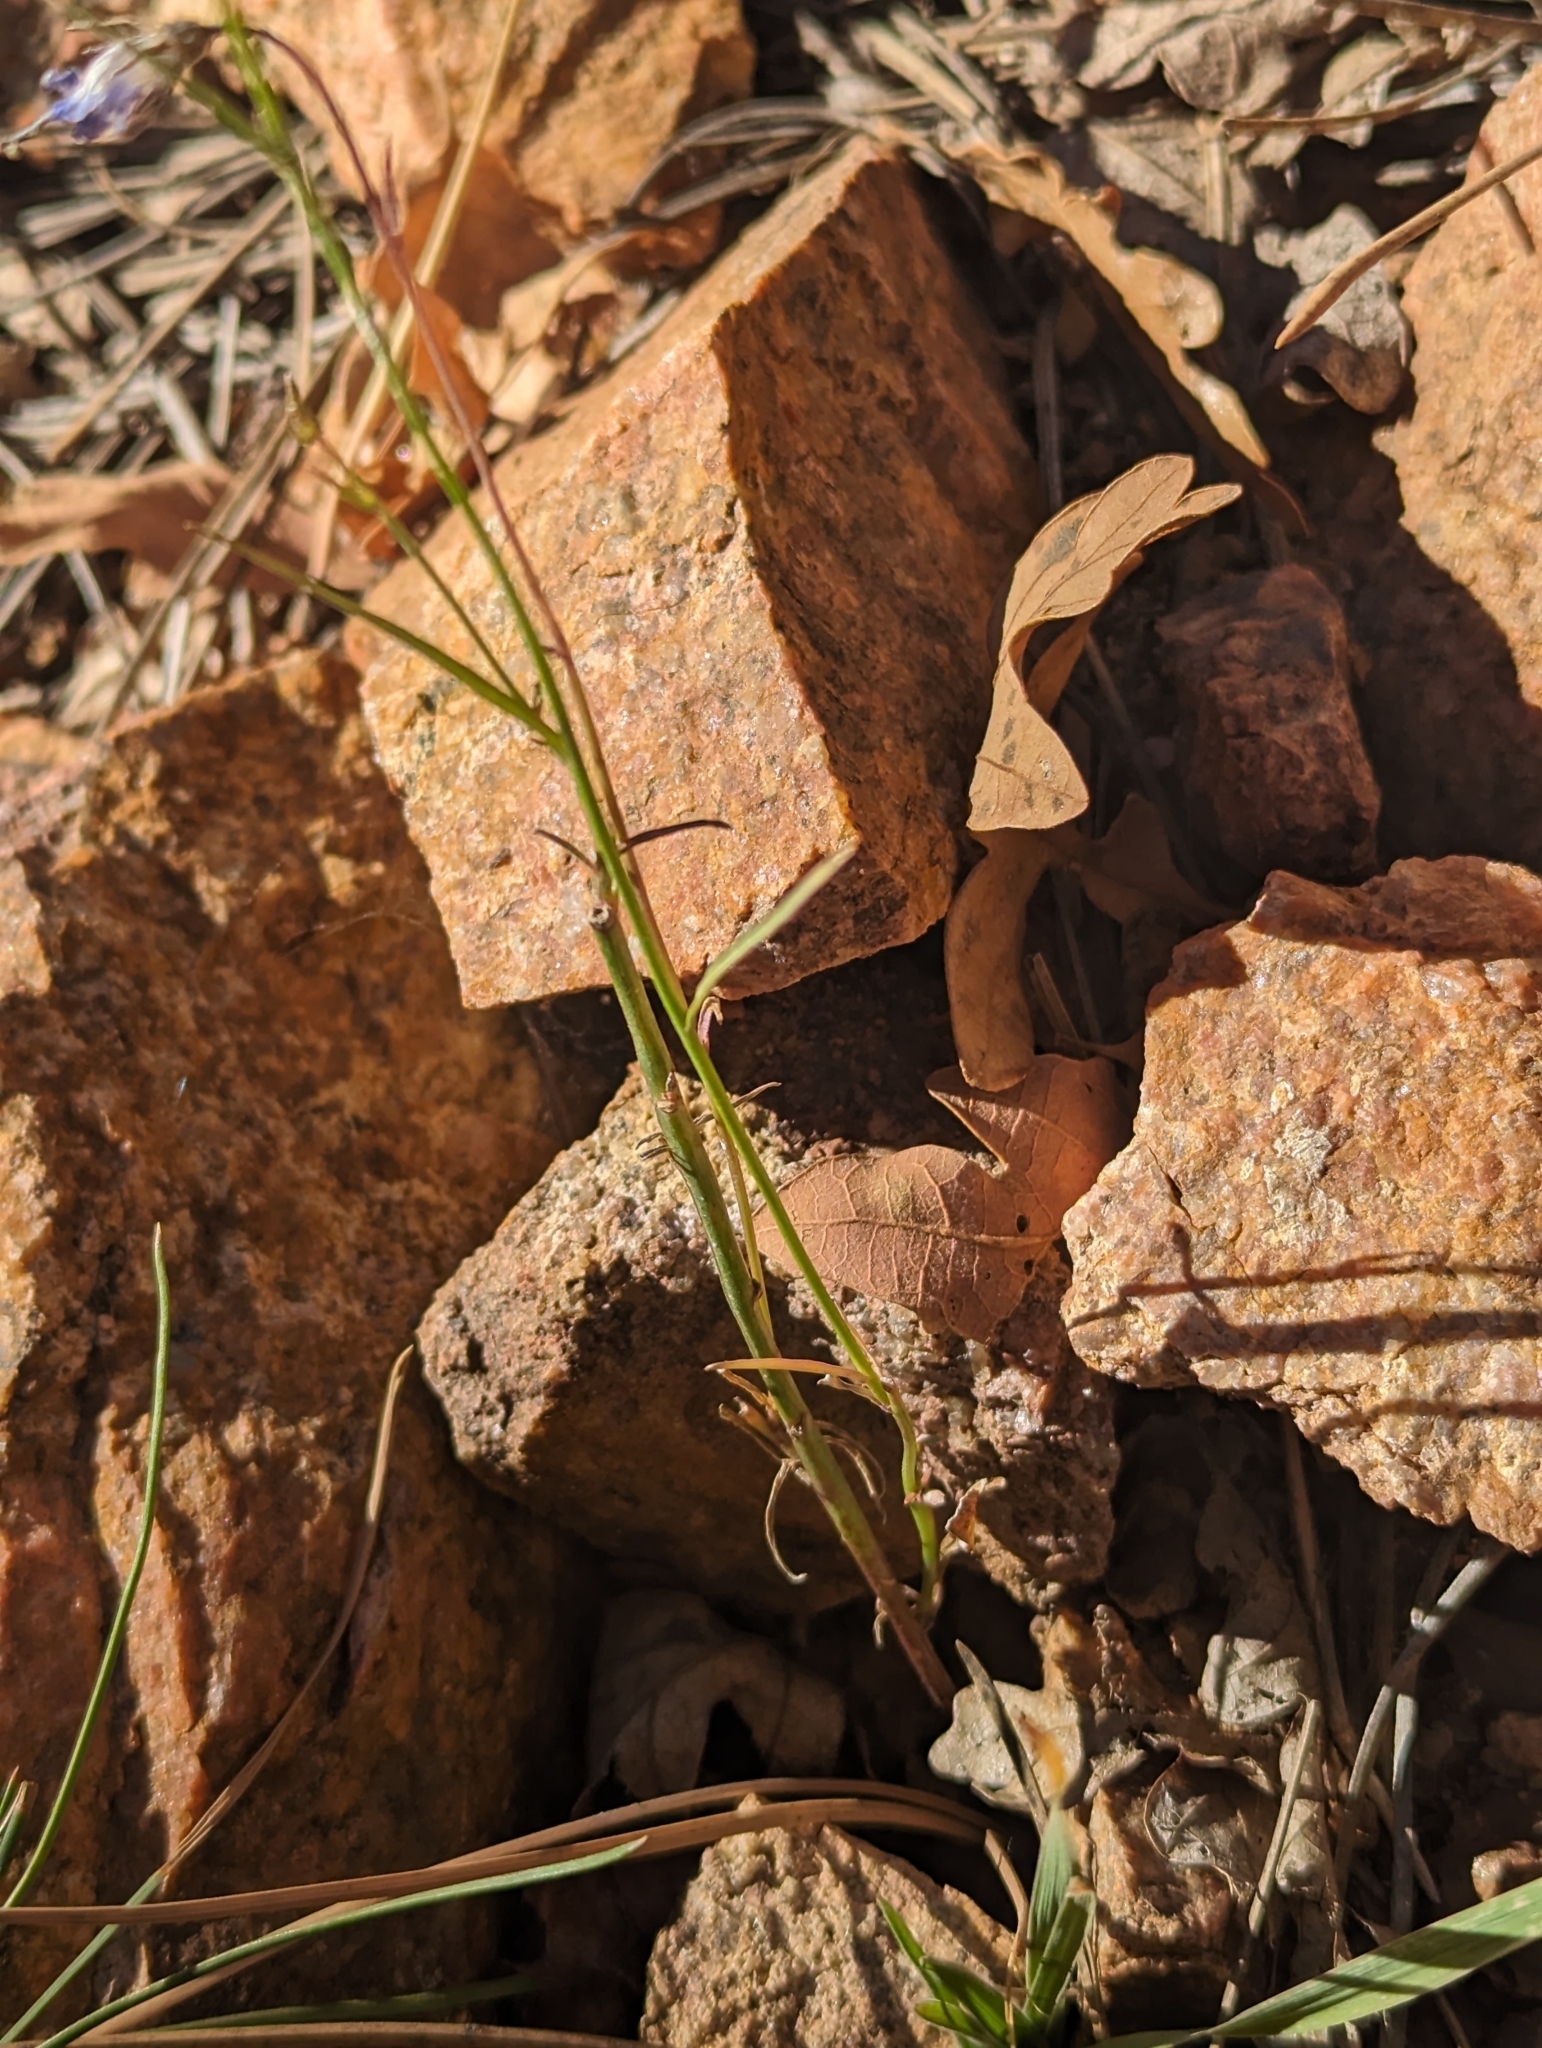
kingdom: Plantae
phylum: Tracheophyta
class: Magnoliopsida
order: Asterales
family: Campanulaceae
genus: Campanula
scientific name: Campanula petiolata
